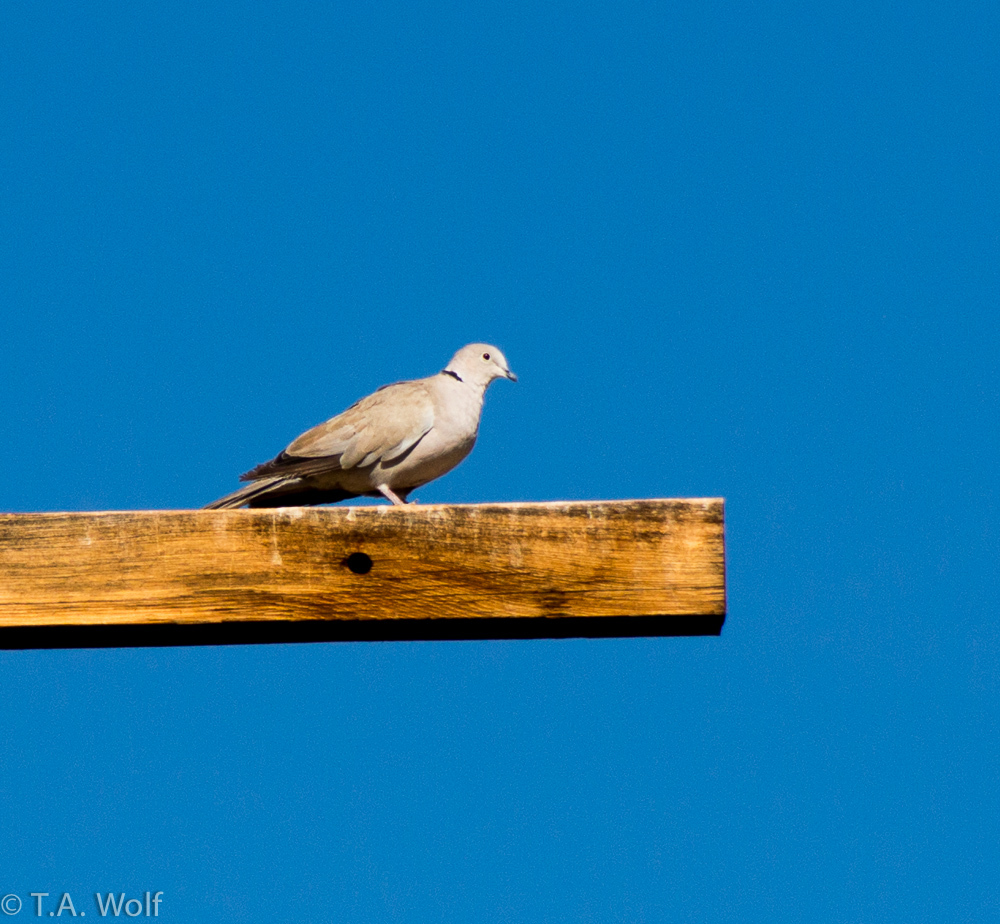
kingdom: Animalia
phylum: Chordata
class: Aves
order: Columbiformes
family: Columbidae
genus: Streptopelia
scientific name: Streptopelia decaocto
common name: Eurasian collared dove
